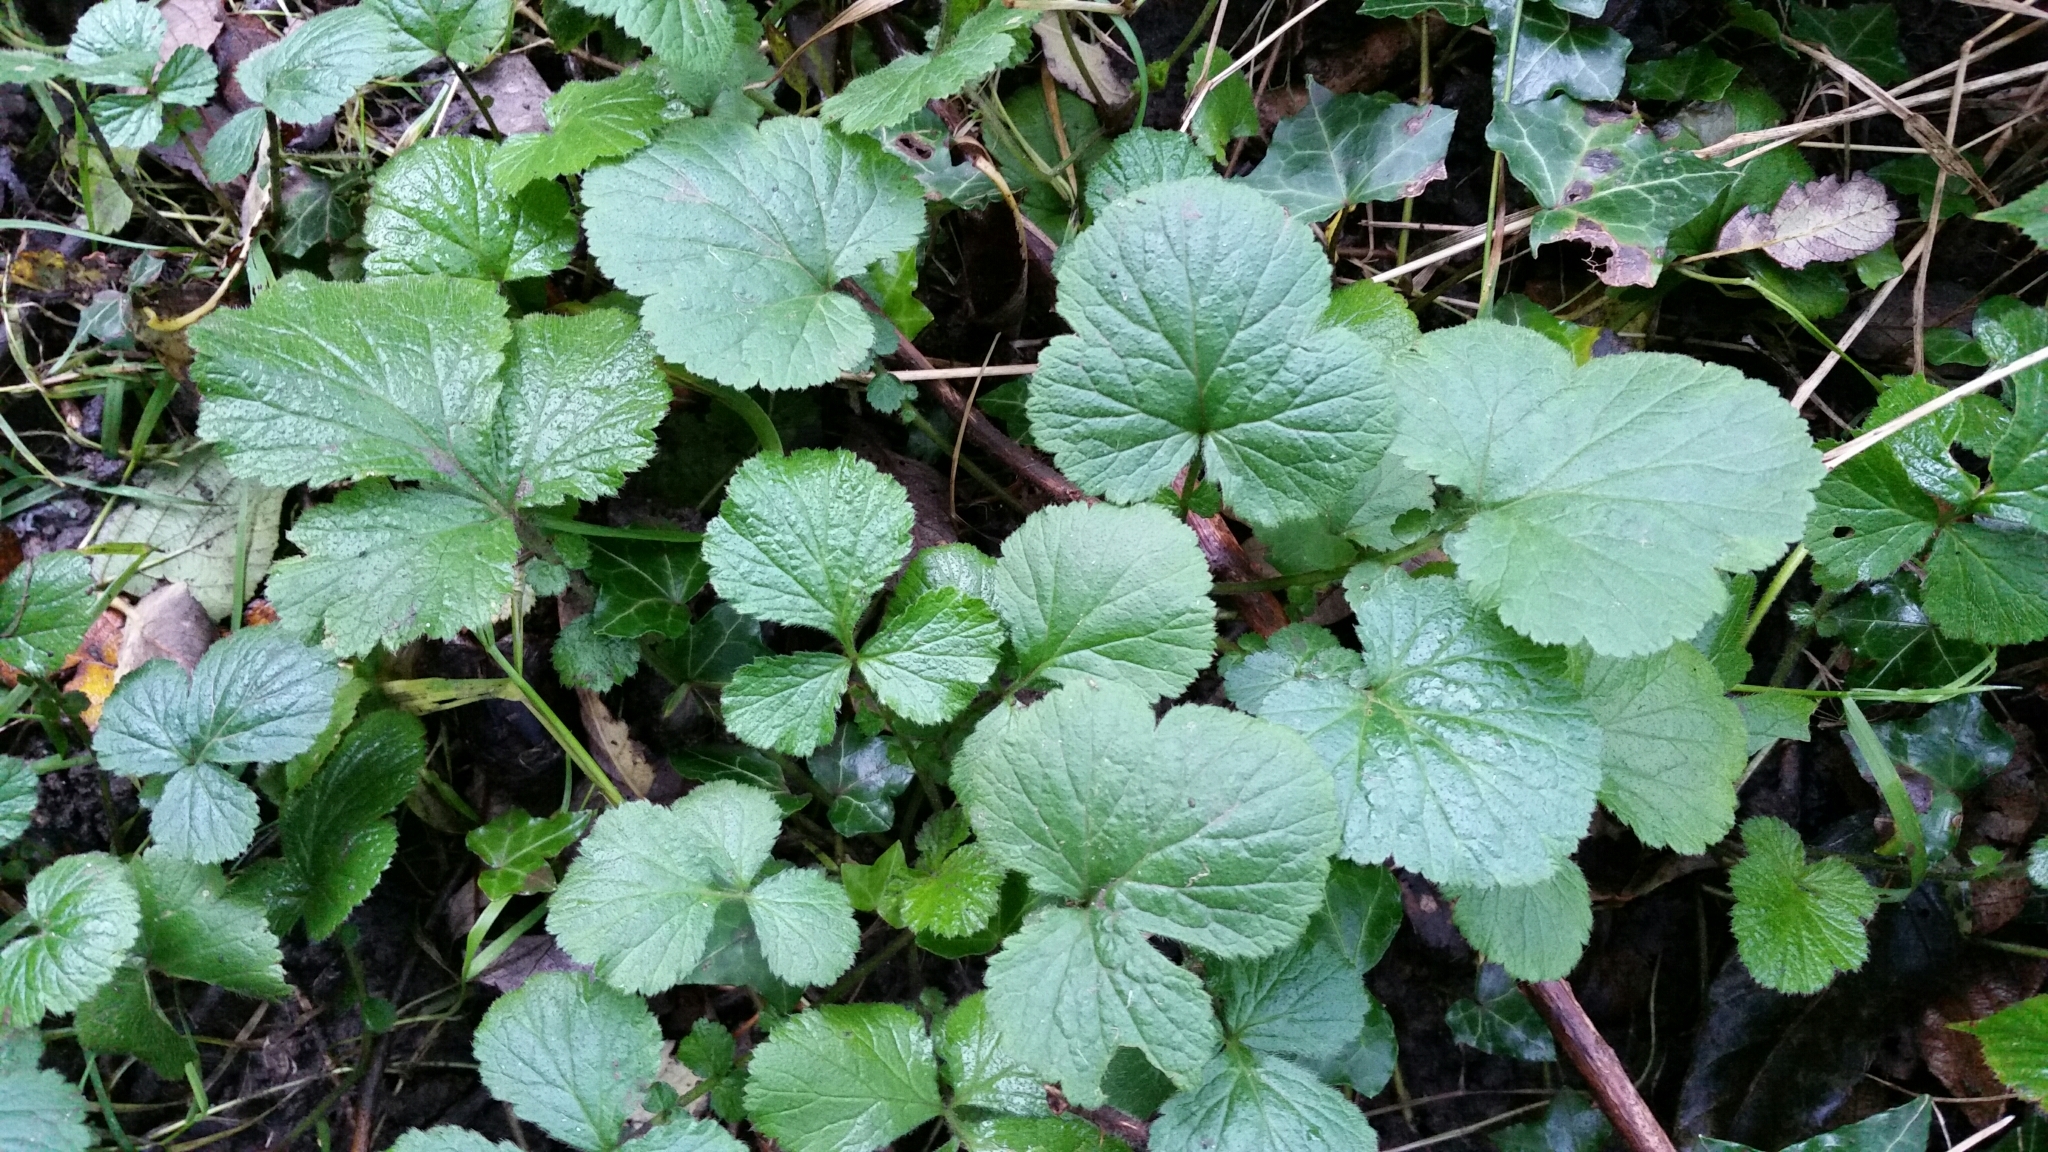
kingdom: Plantae
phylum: Tracheophyta
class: Magnoliopsida
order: Rosales
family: Rosaceae
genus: Geum
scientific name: Geum urbanum
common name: Wood avens
